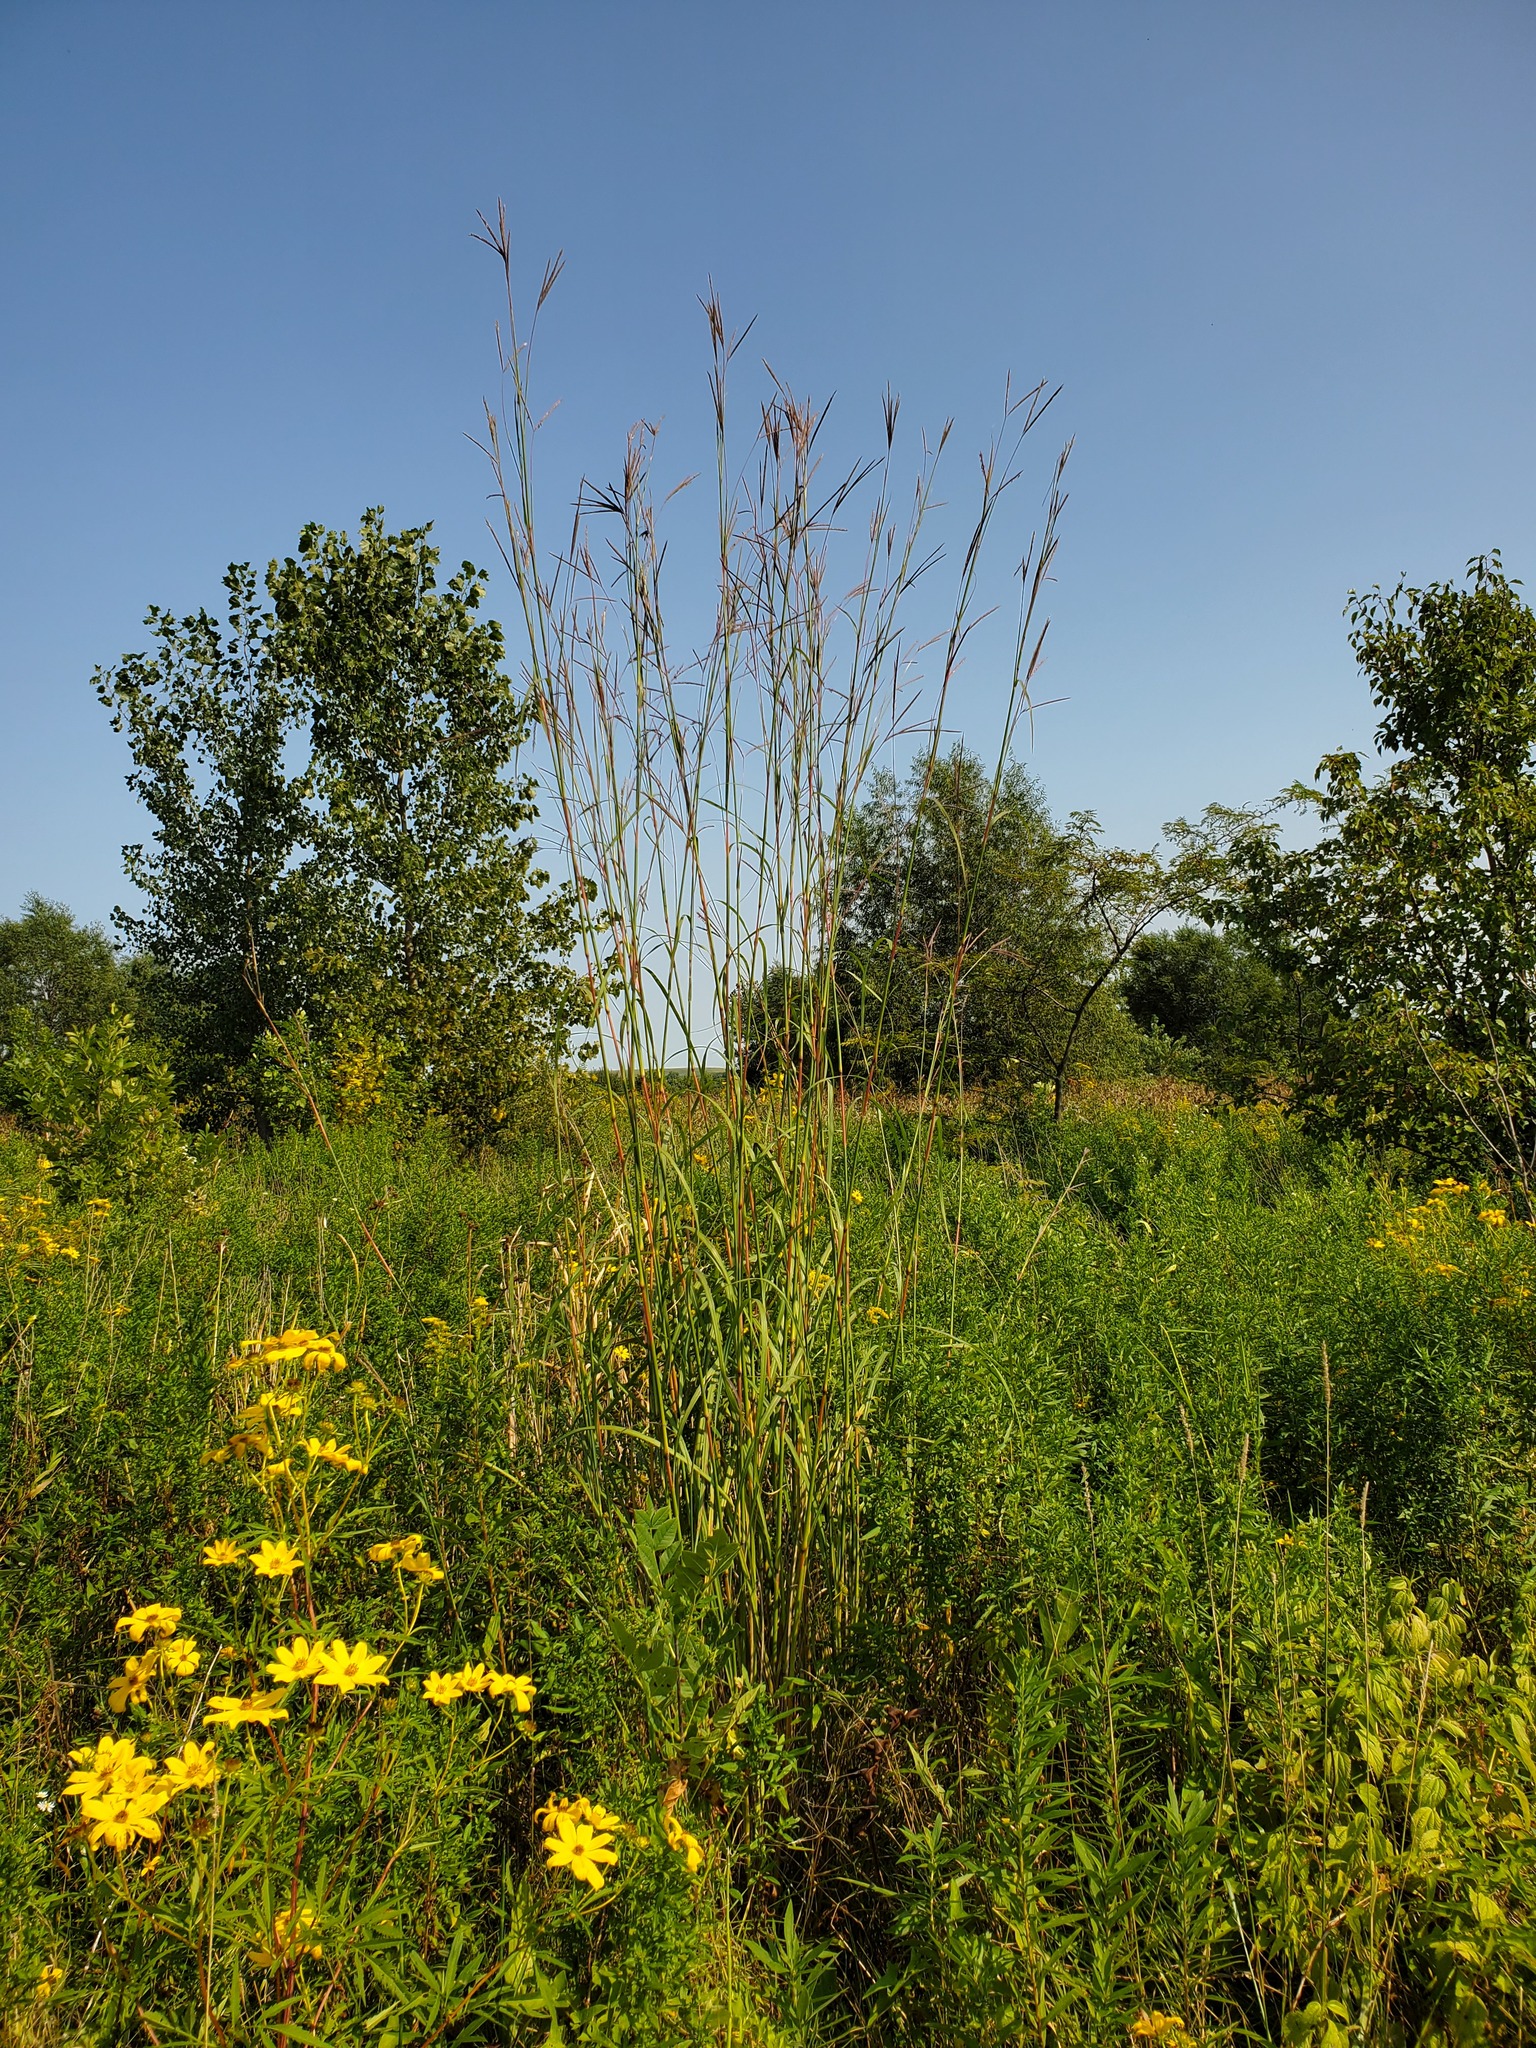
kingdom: Plantae
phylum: Tracheophyta
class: Liliopsida
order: Poales
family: Poaceae
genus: Andropogon
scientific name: Andropogon gerardi
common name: Big bluestem
